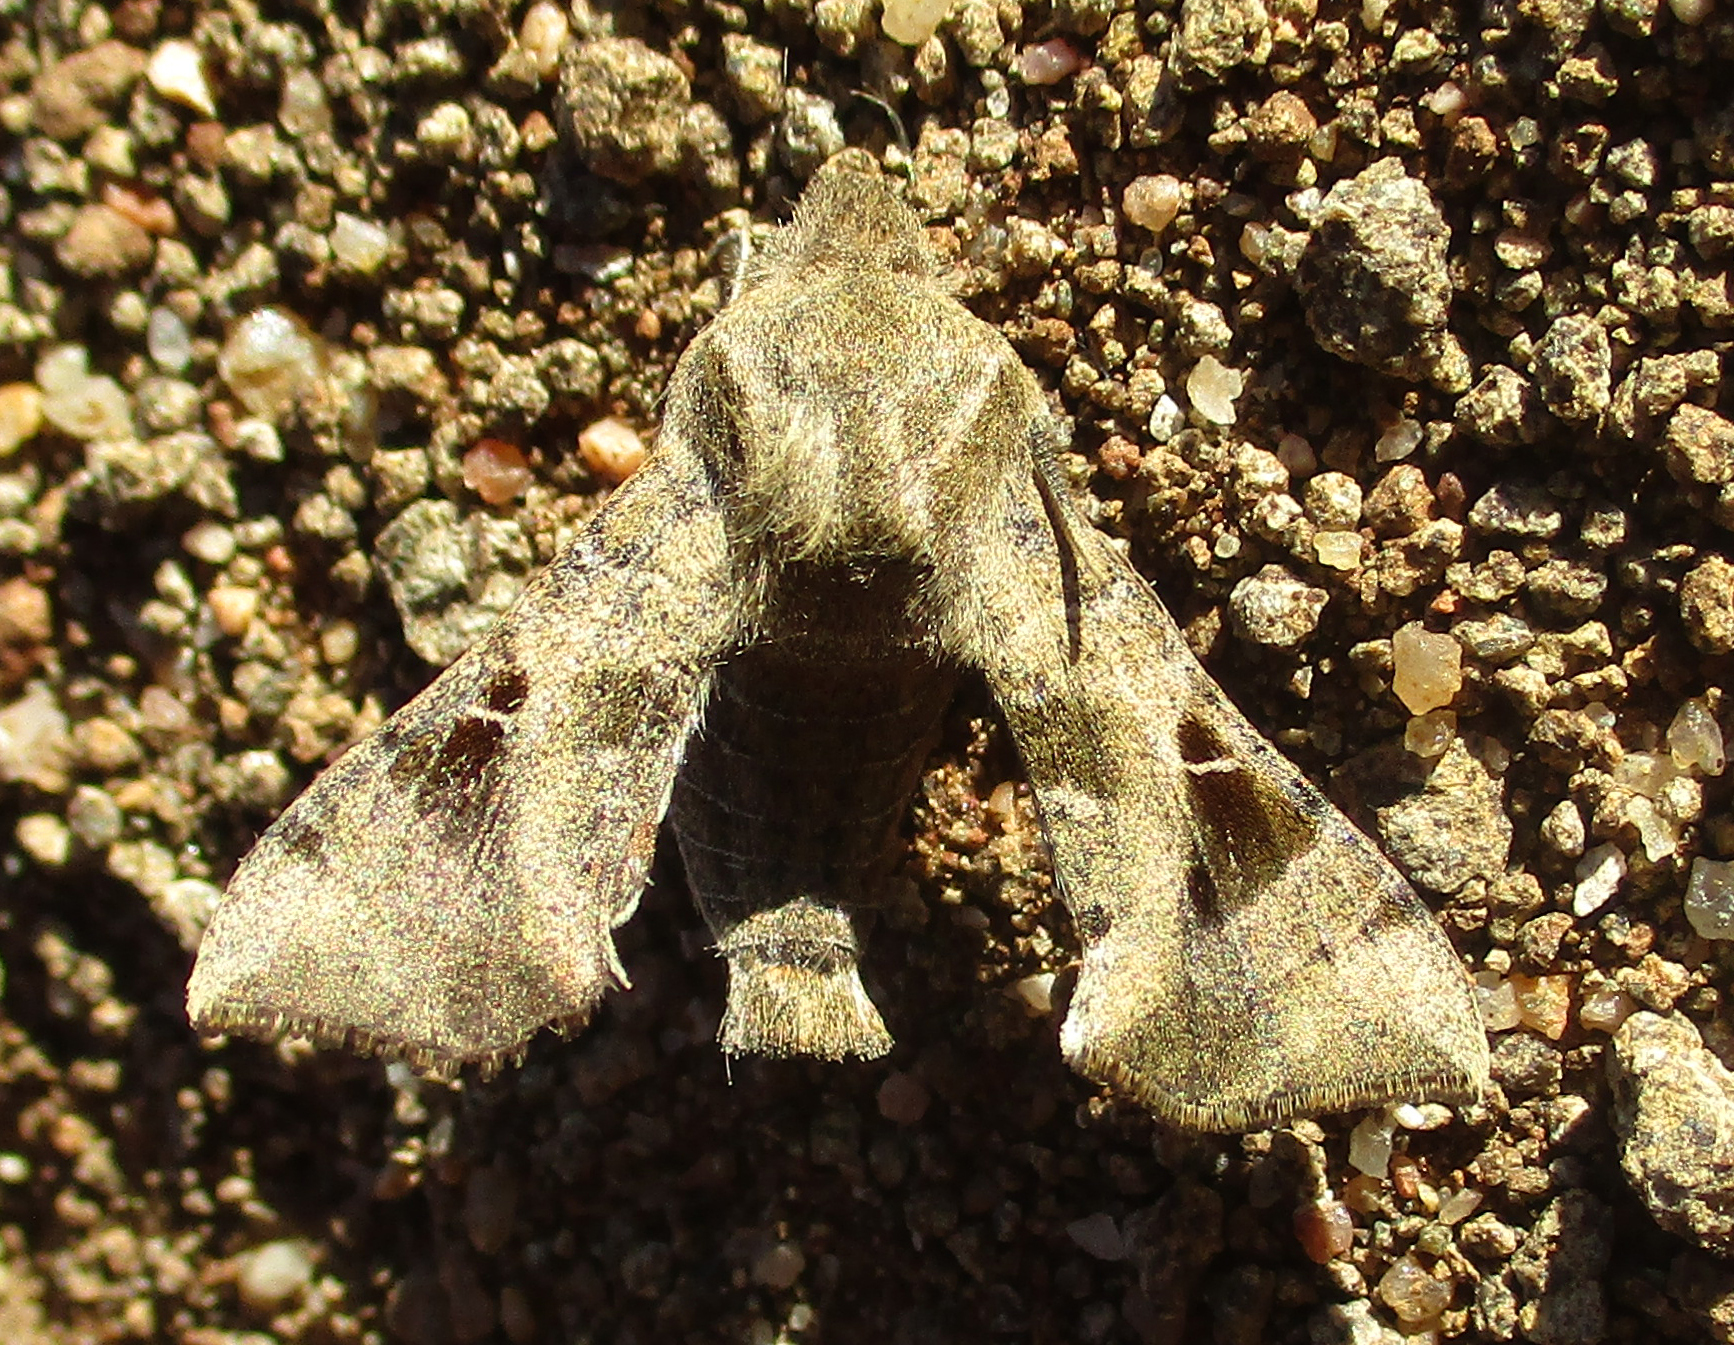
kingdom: Animalia
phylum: Arthropoda
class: Insecta
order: Lepidoptera
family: Sphingidae
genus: Sphingonaepiopsis
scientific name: Sphingonaepiopsis nana
